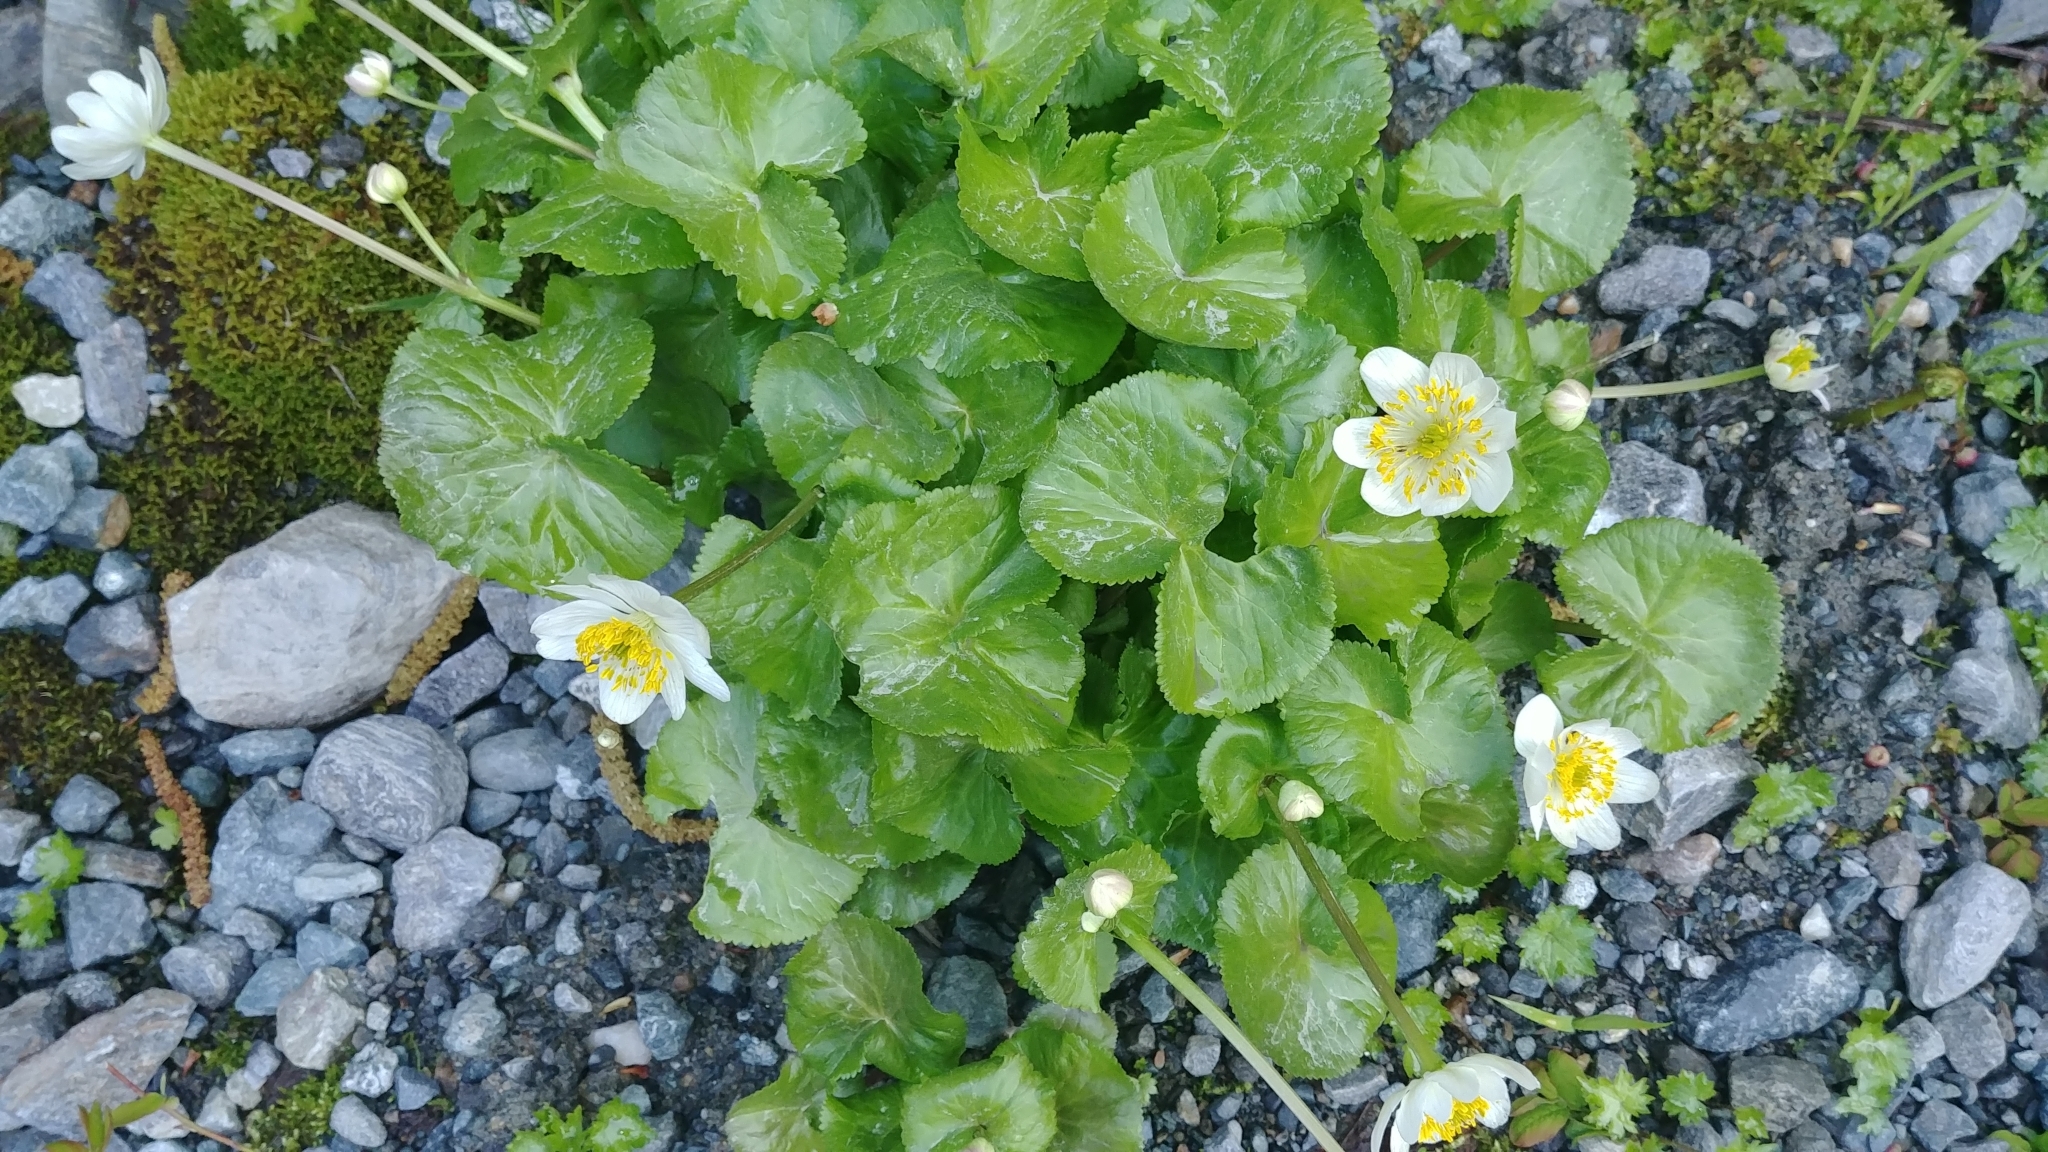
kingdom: Plantae
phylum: Tracheophyta
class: Magnoliopsida
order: Ranunculales
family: Ranunculaceae
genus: Caltha
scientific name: Caltha leptosepala
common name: Elkslip
